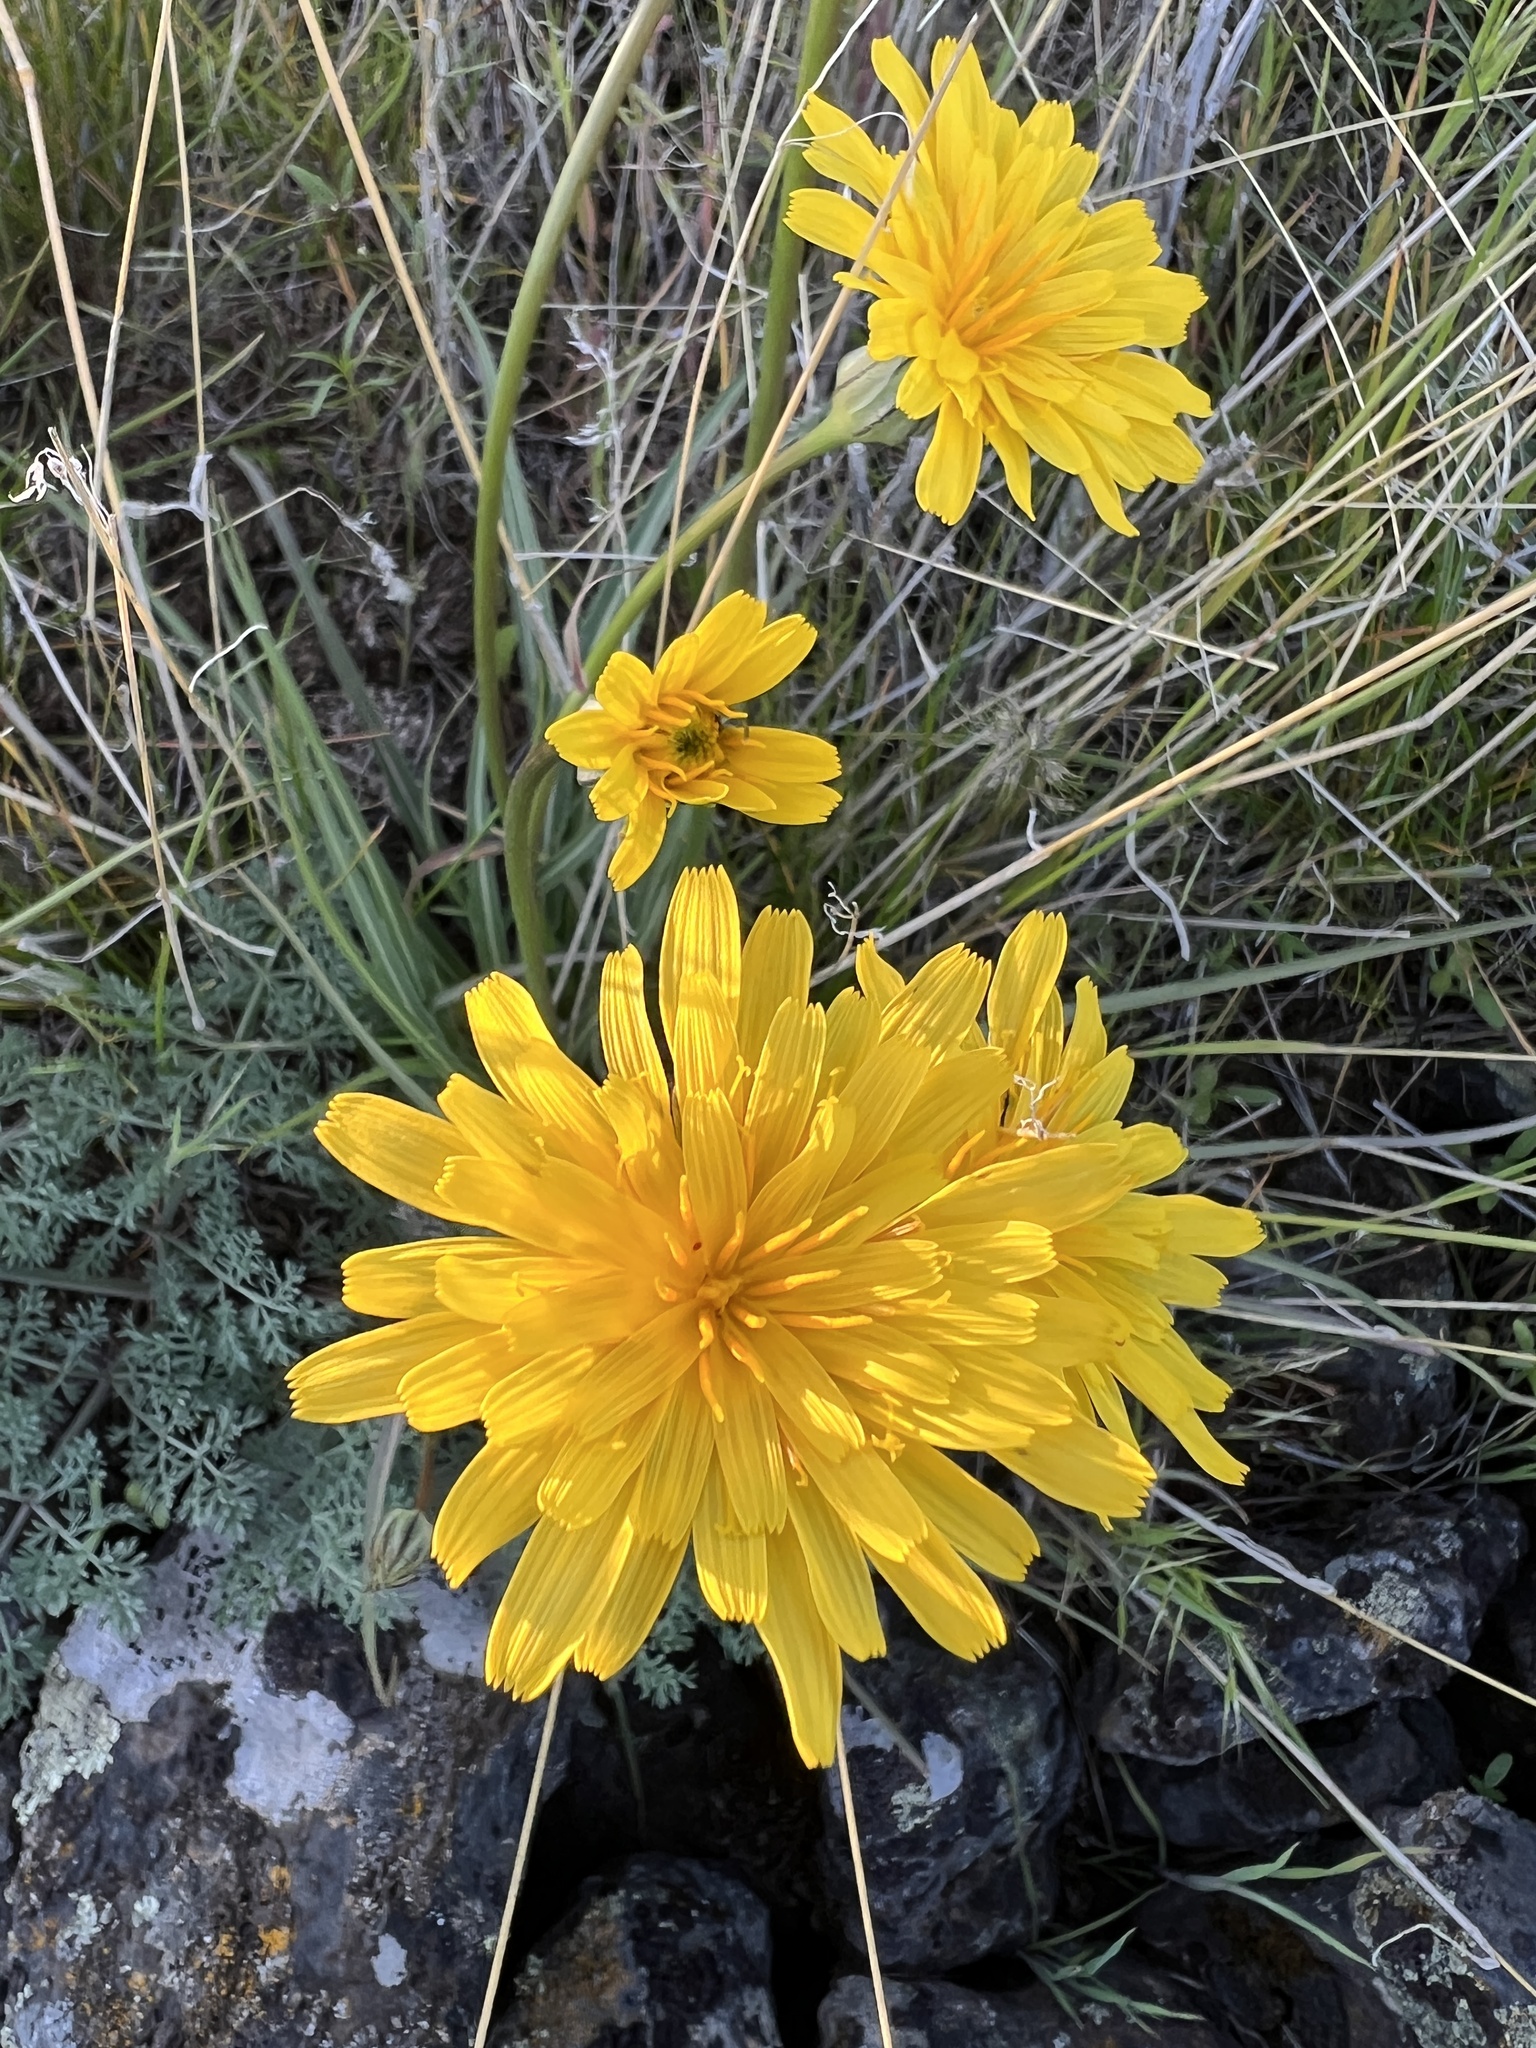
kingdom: Plantae
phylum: Tracheophyta
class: Magnoliopsida
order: Asterales
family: Asteraceae
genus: Microseris
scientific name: Microseris troximoides
